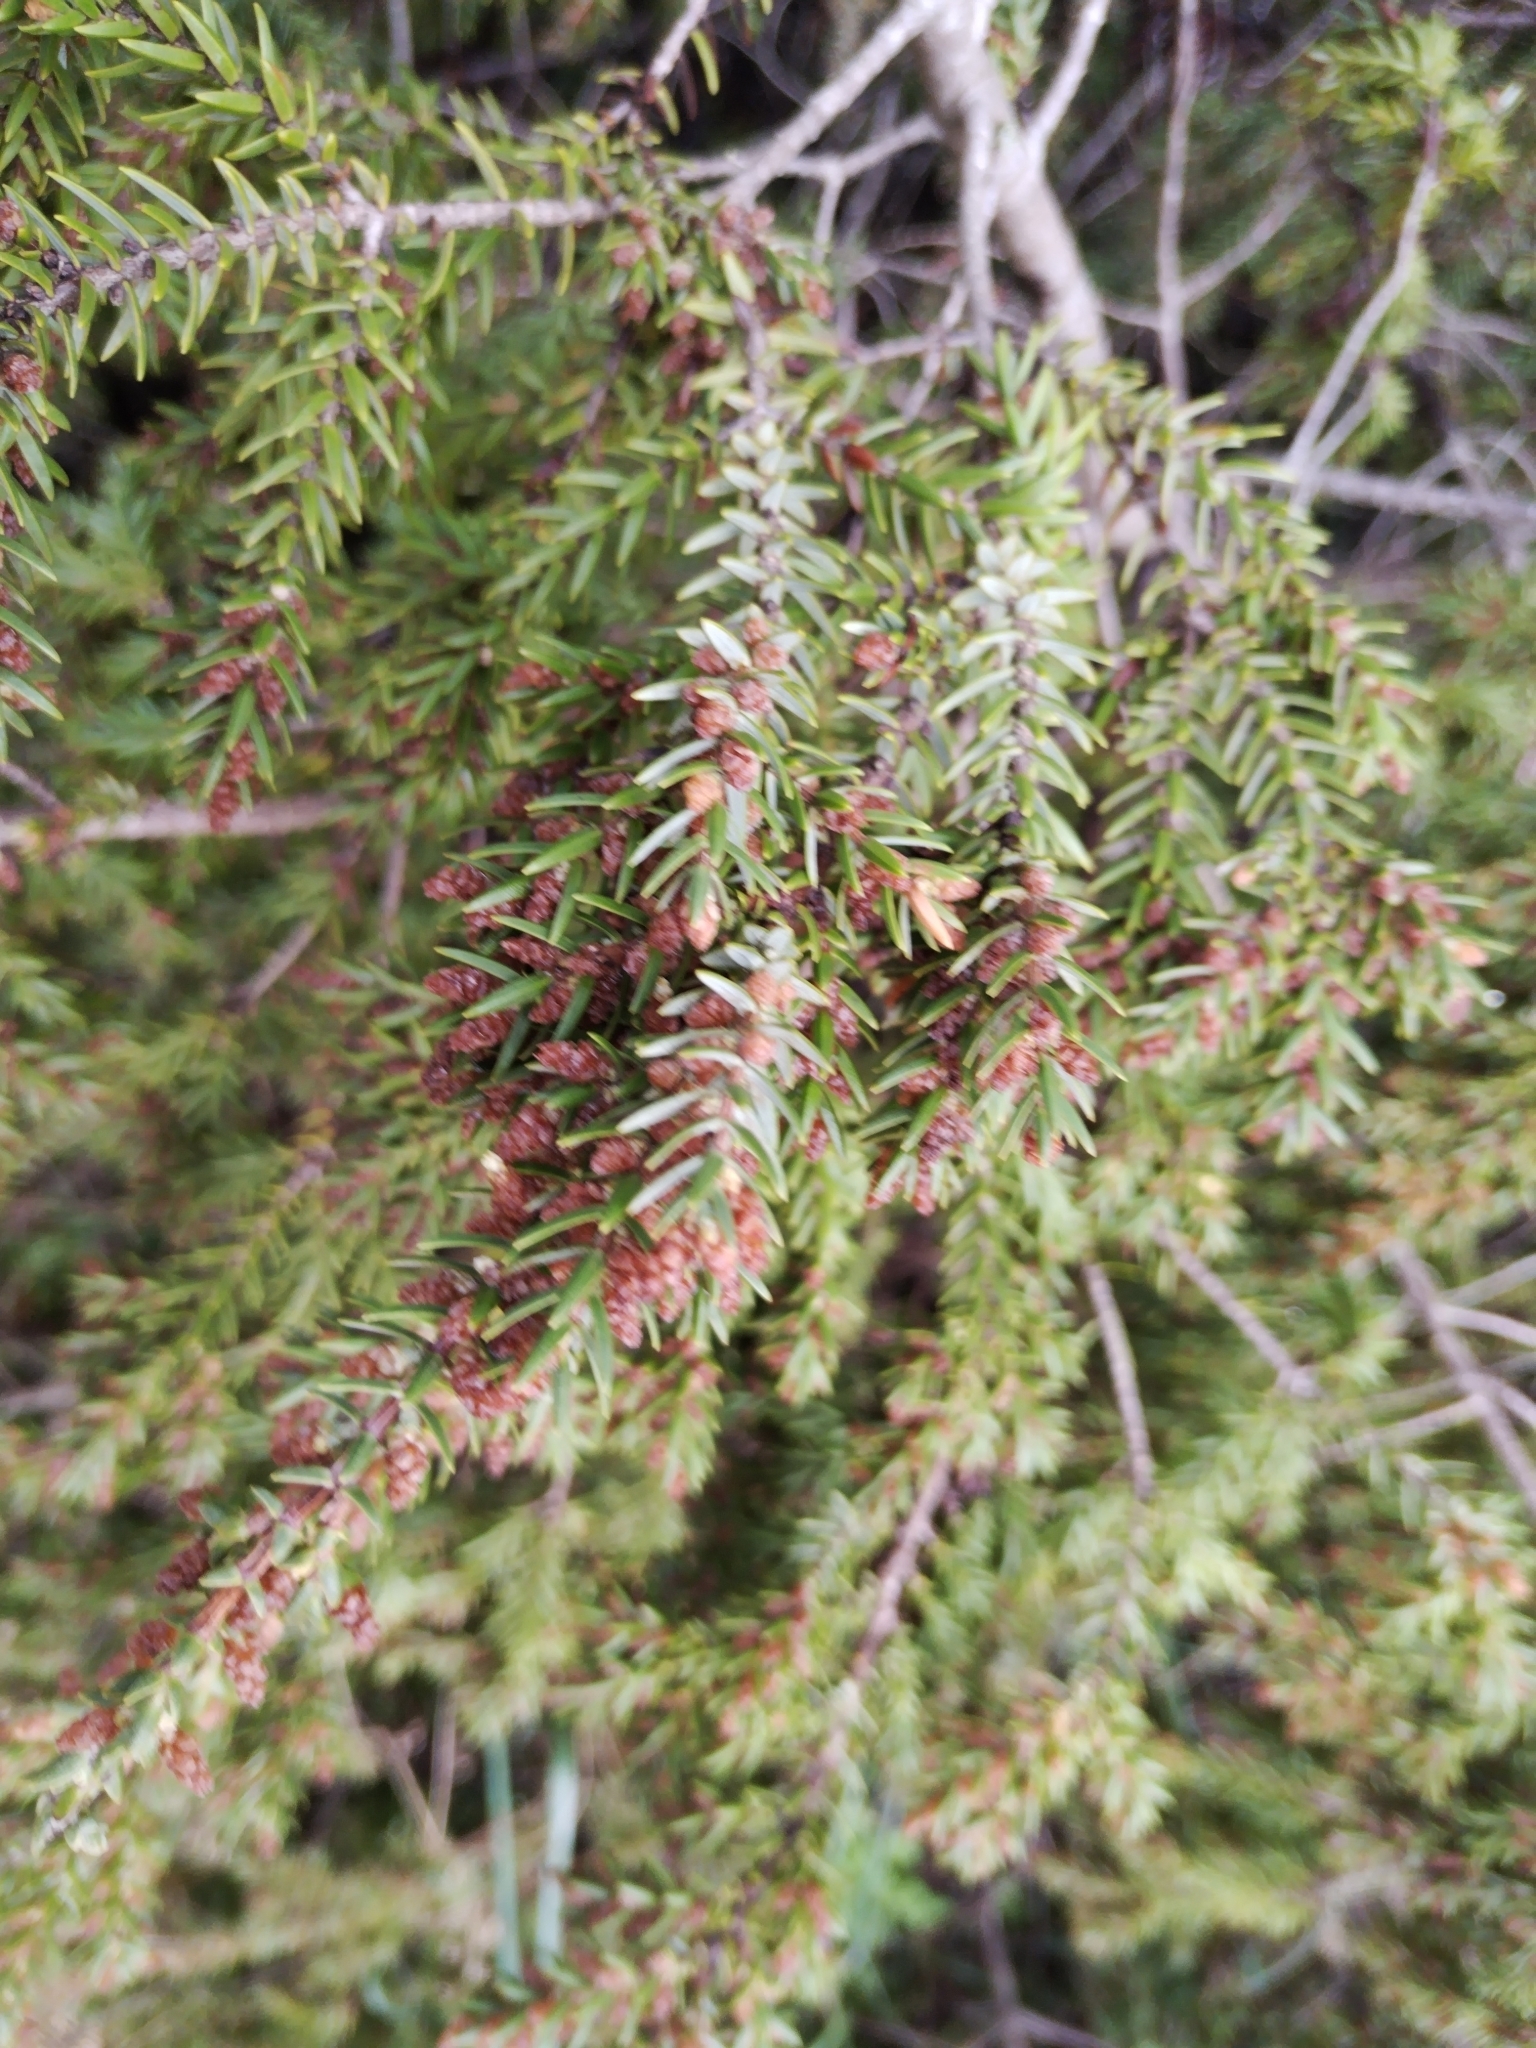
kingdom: Plantae
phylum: Tracheophyta
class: Pinopsida
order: Pinales
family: Cupressaceae
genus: Juniperus
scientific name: Juniperus oxycedrus
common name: Prickly juniper
